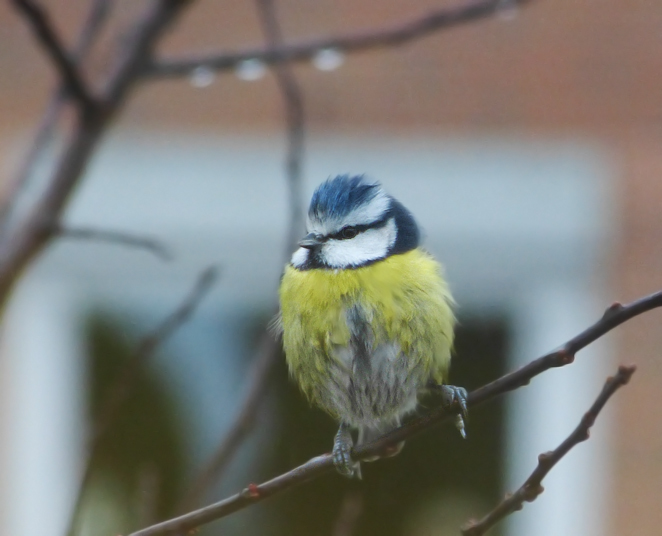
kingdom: Animalia
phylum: Chordata
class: Aves
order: Passeriformes
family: Paridae
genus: Cyanistes
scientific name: Cyanistes caeruleus
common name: Eurasian blue tit
